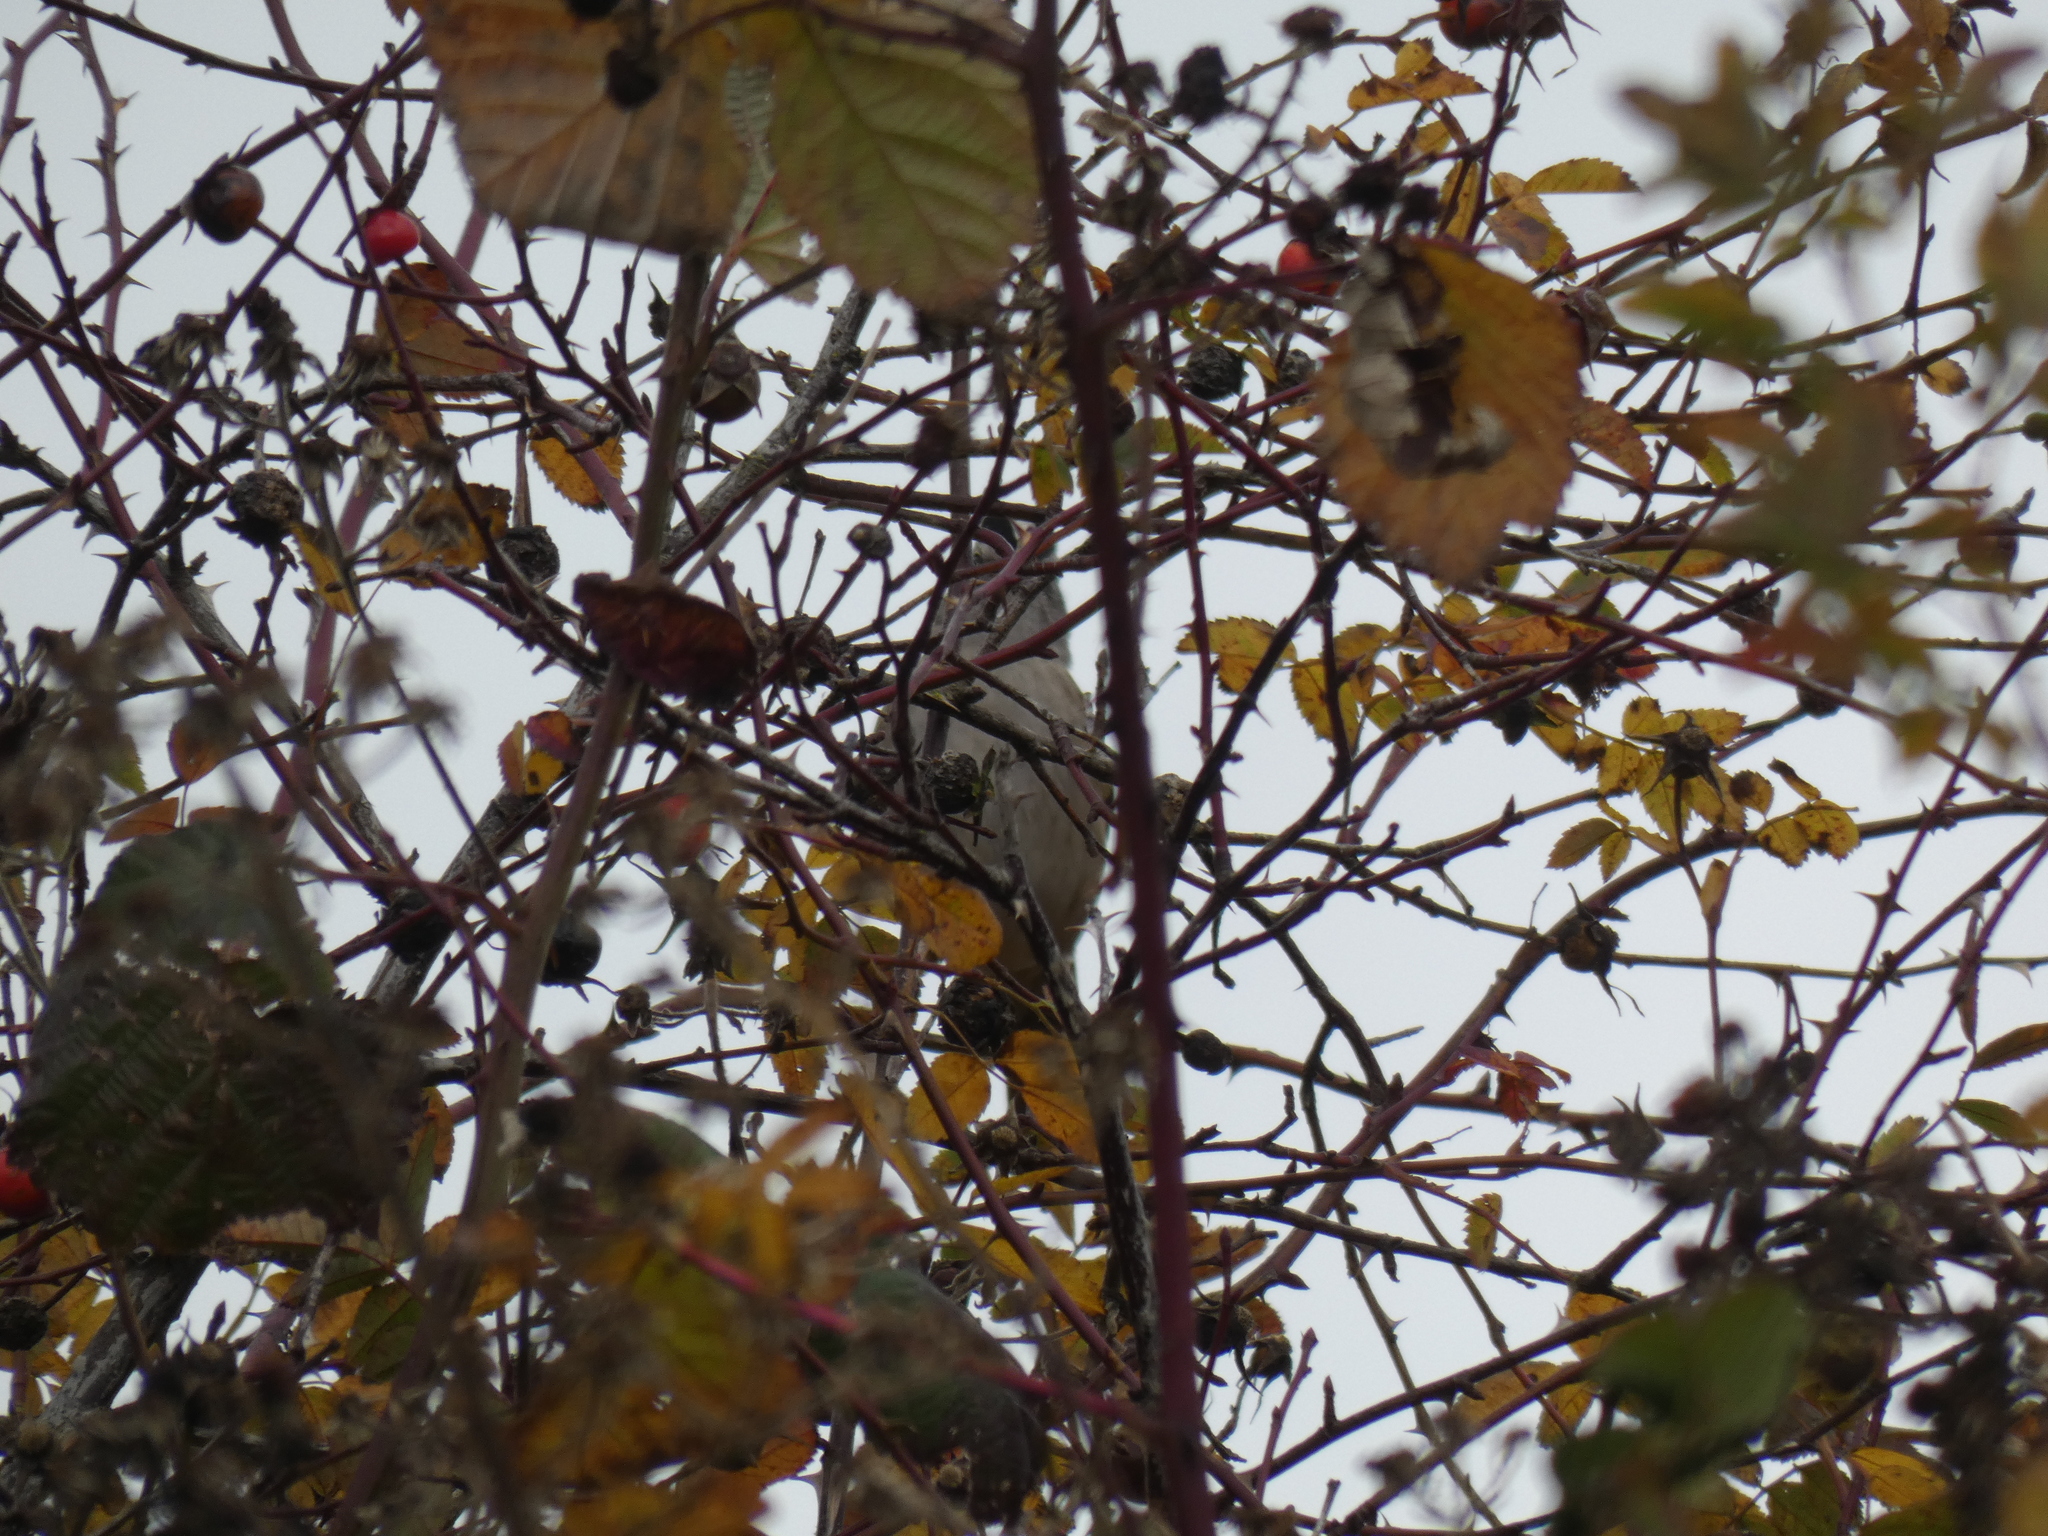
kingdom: Animalia
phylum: Chordata
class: Aves
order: Passeriformes
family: Passerellidae
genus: Zonotrichia
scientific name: Zonotrichia leucophrys
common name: White-crowned sparrow
